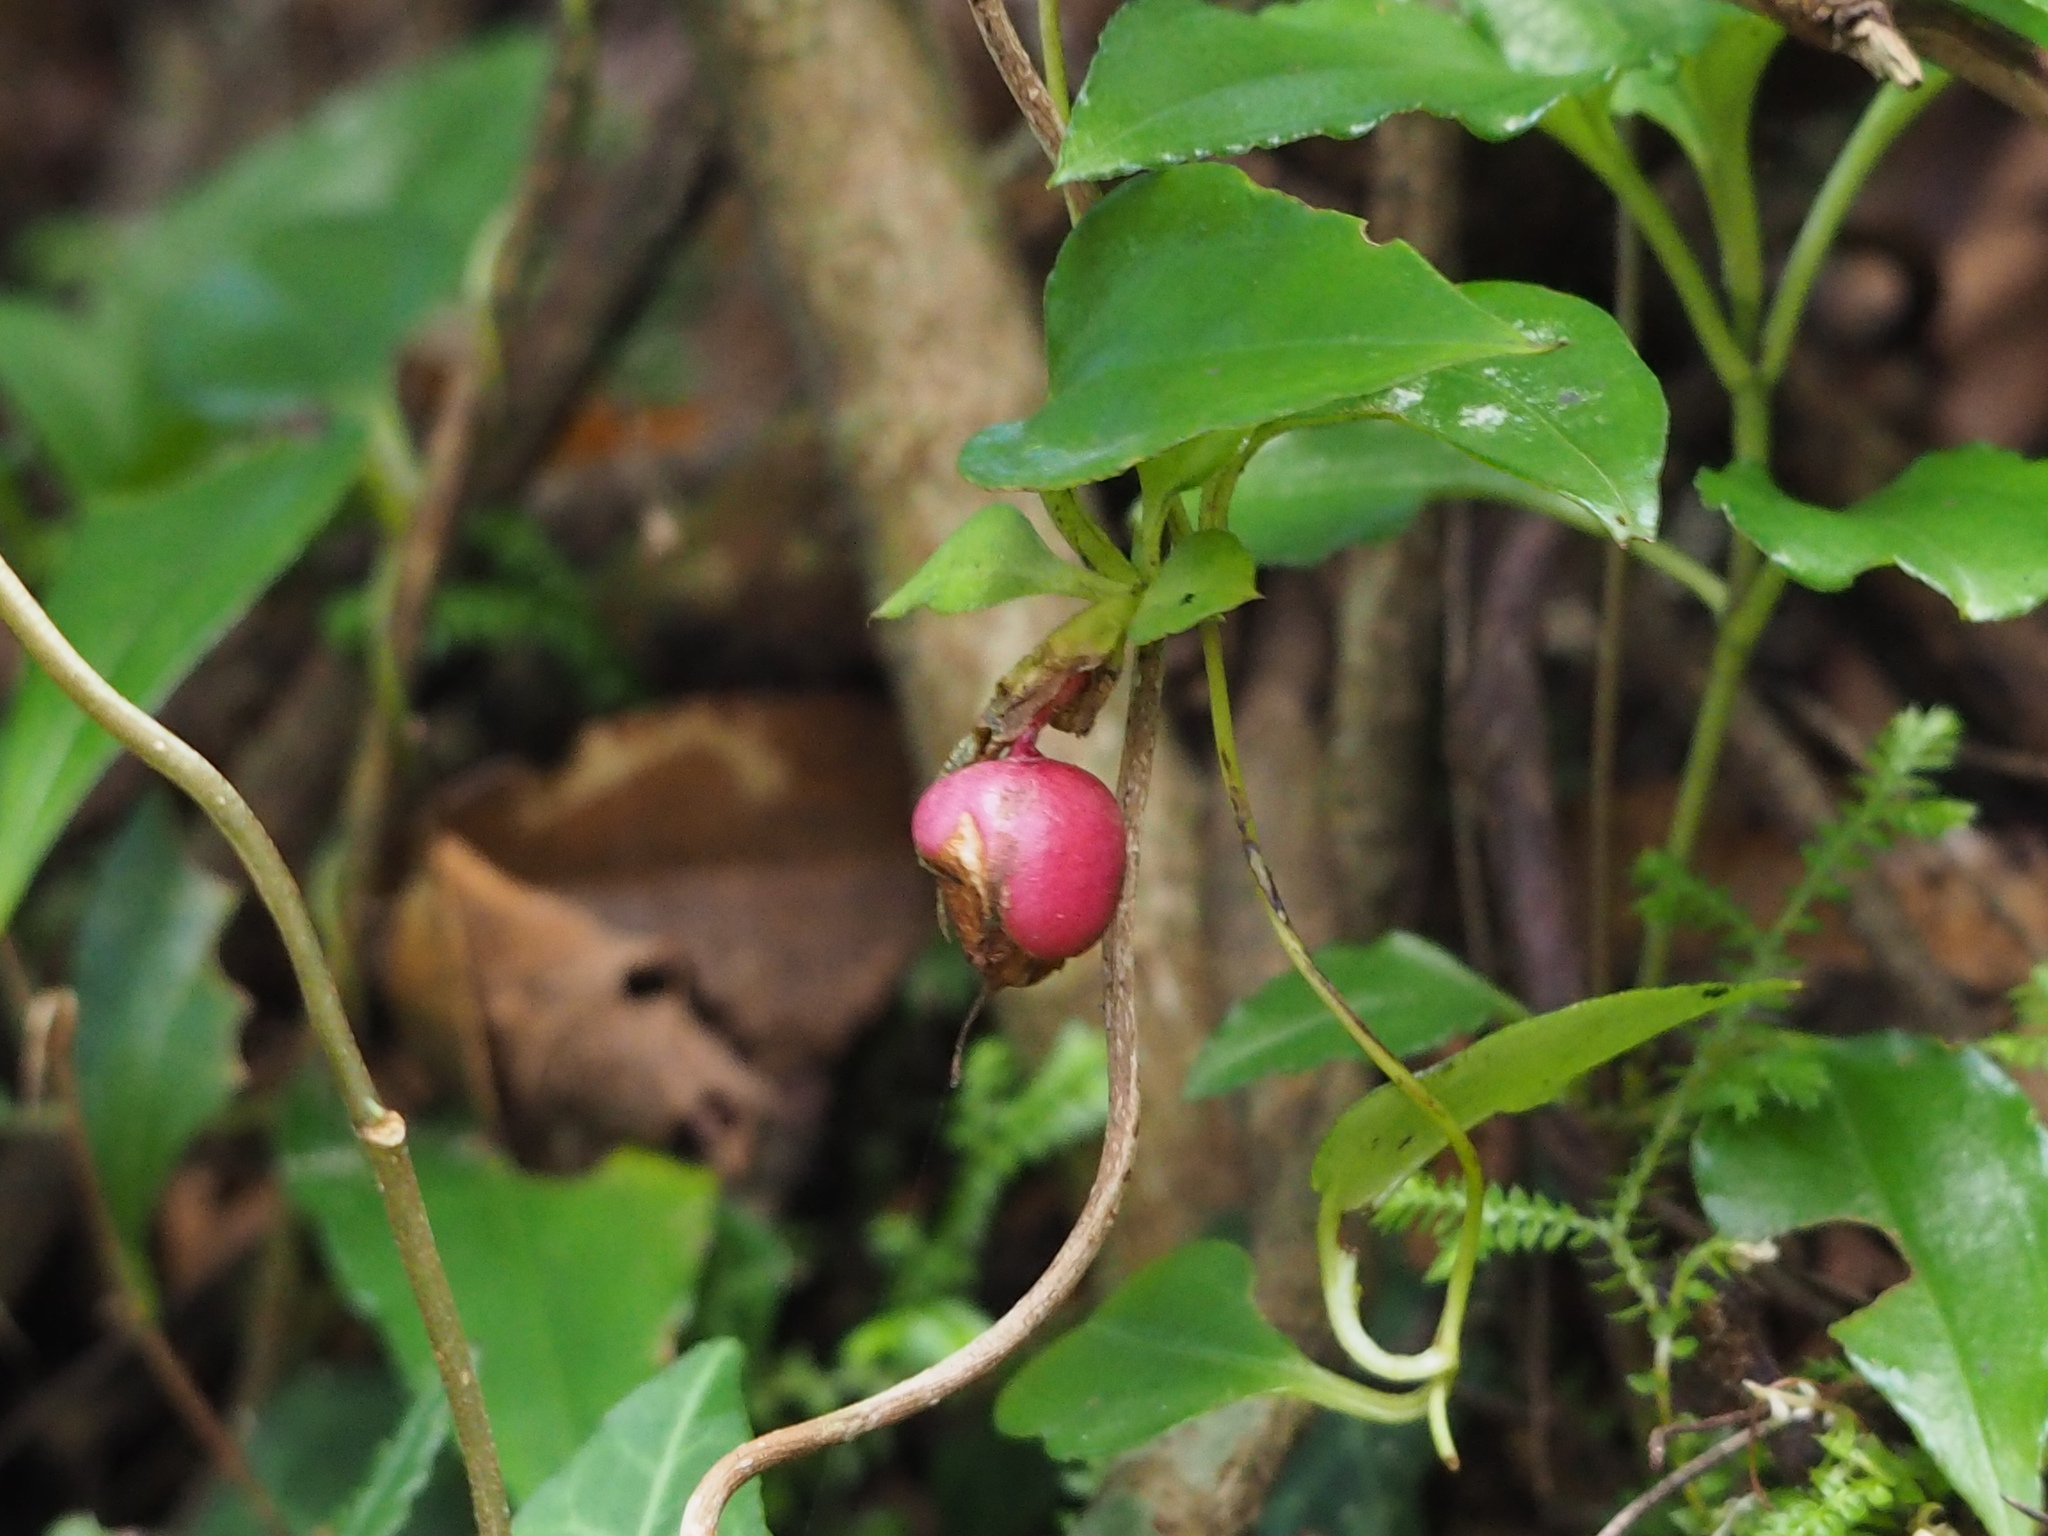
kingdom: Plantae
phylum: Tracheophyta
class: Magnoliopsida
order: Gentianales
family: Gentianaceae
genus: Tripterospermum
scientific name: Tripterospermum alutaceifolium
